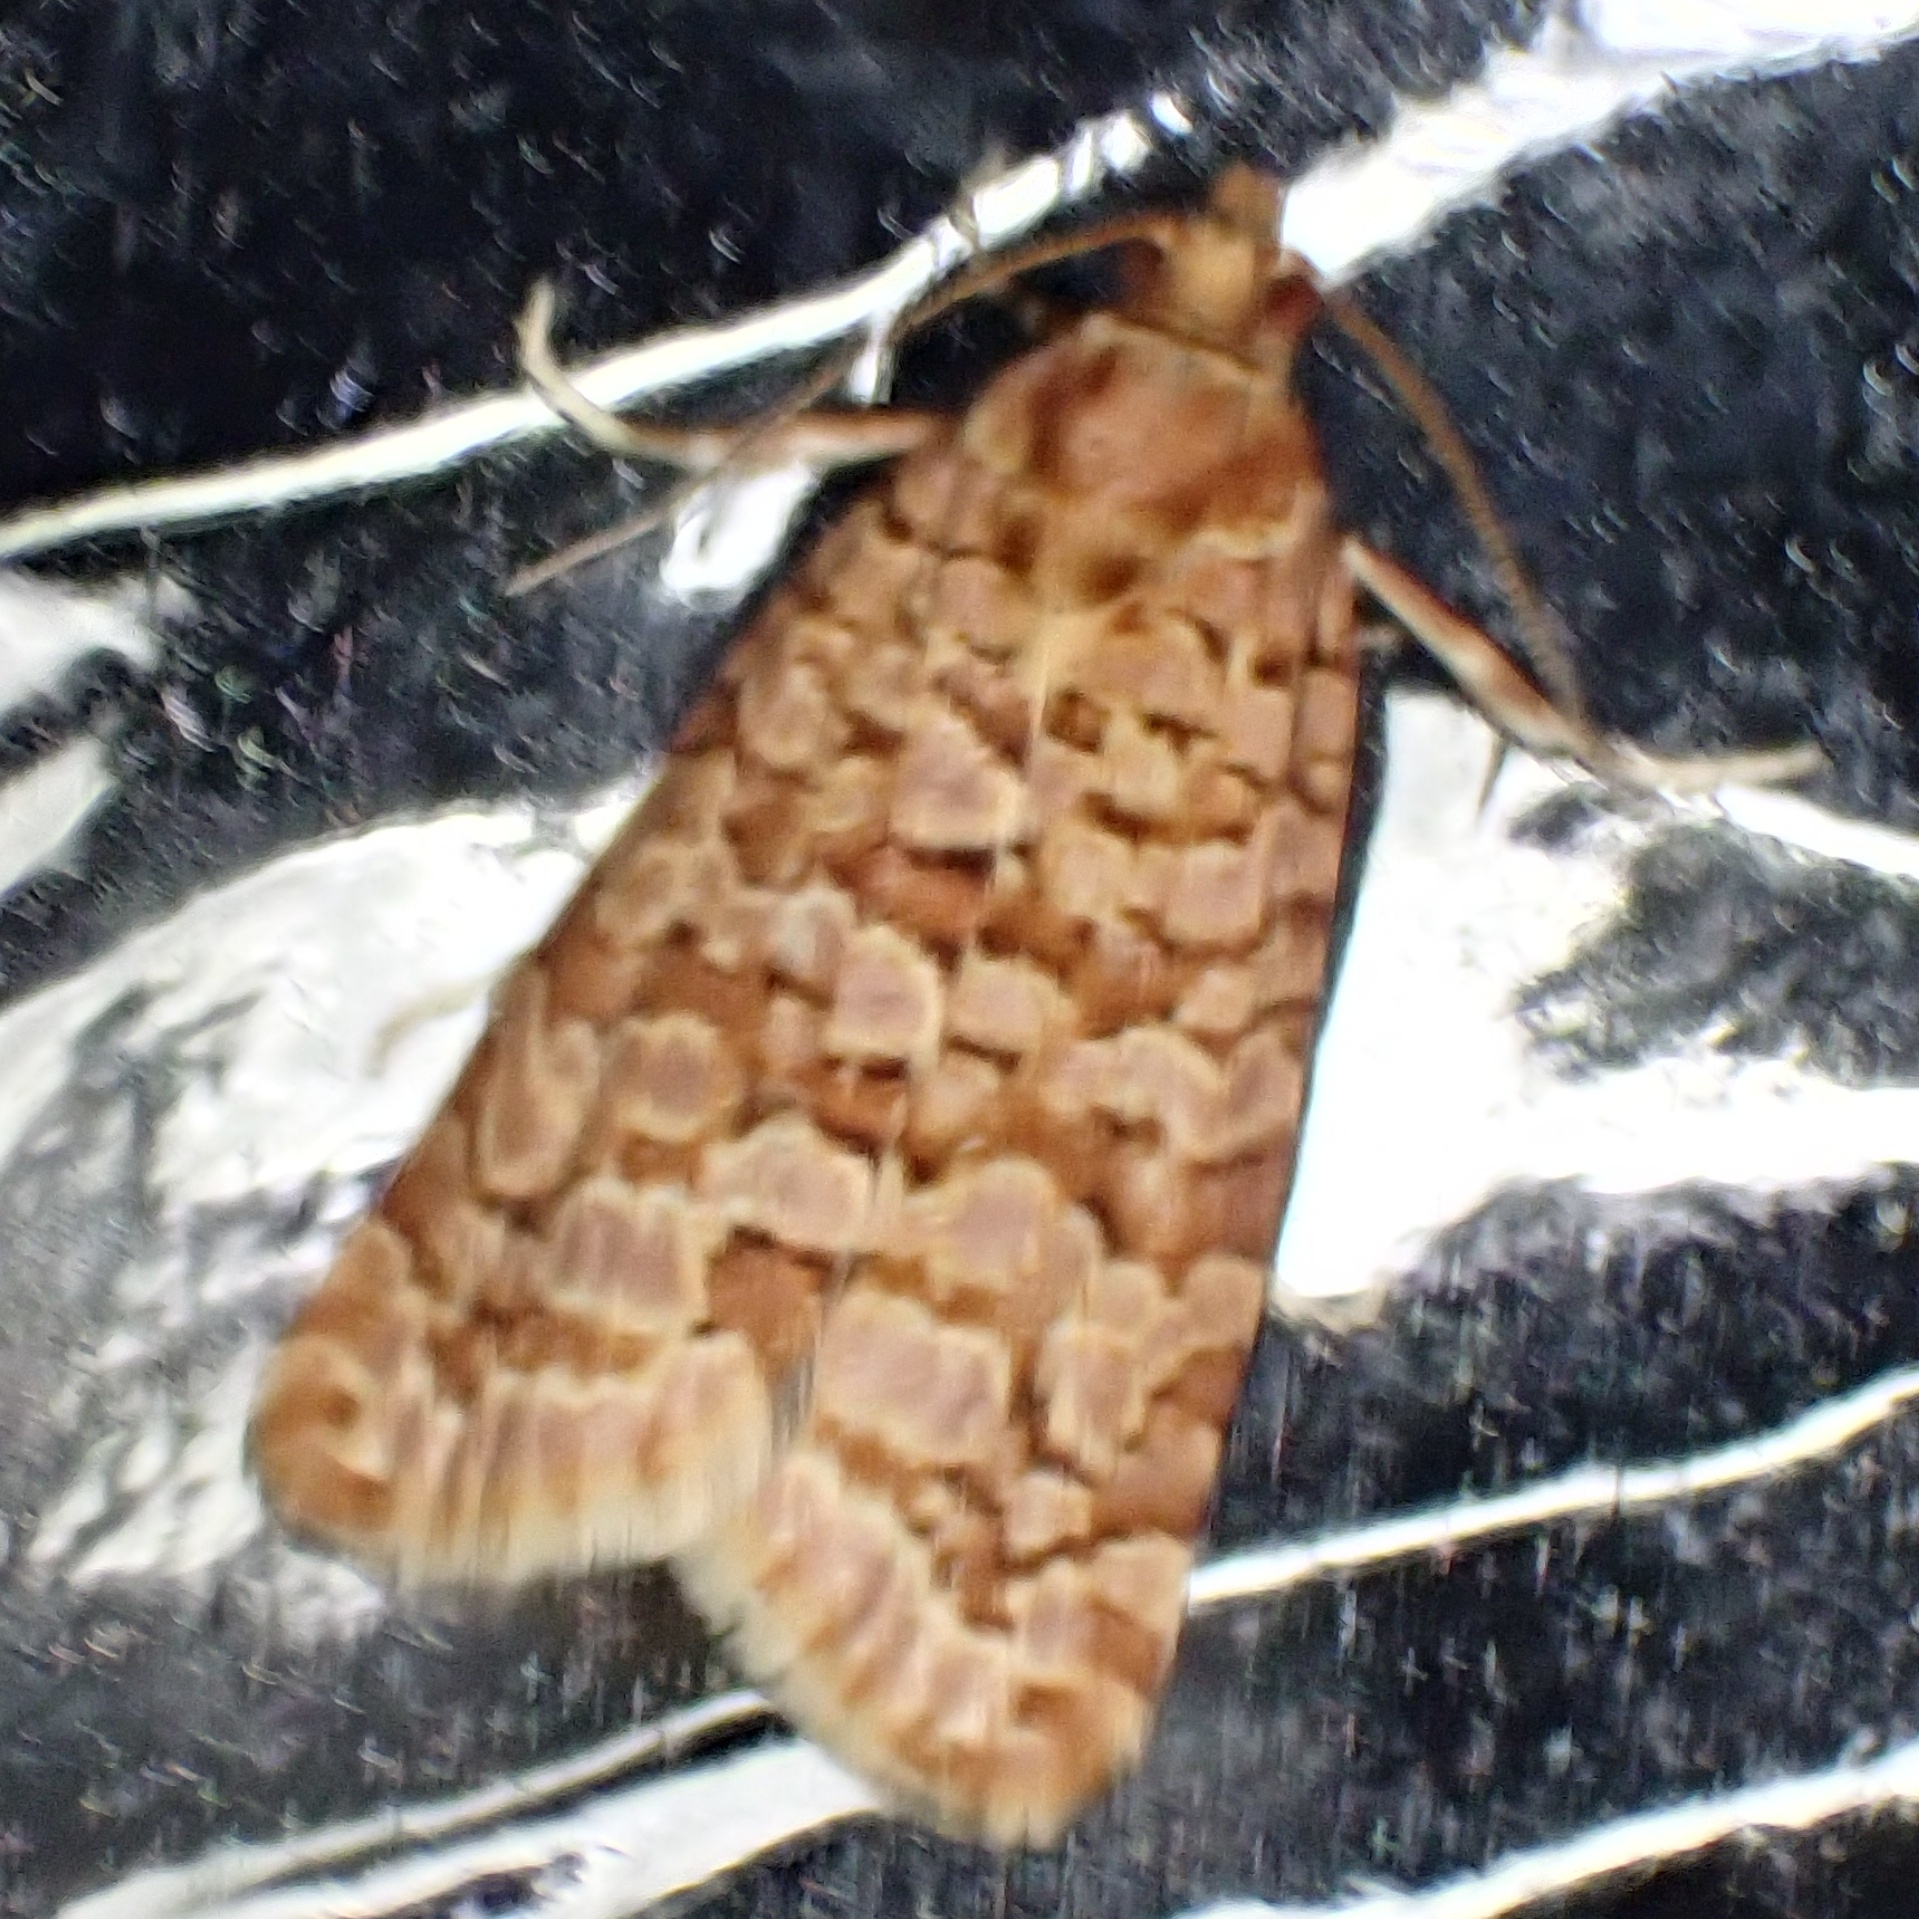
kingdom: Animalia
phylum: Arthropoda
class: Insecta
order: Lepidoptera
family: Tortricidae
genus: Lozotaeniodes
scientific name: Lozotaeniodes formosana
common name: Orange pine twist
